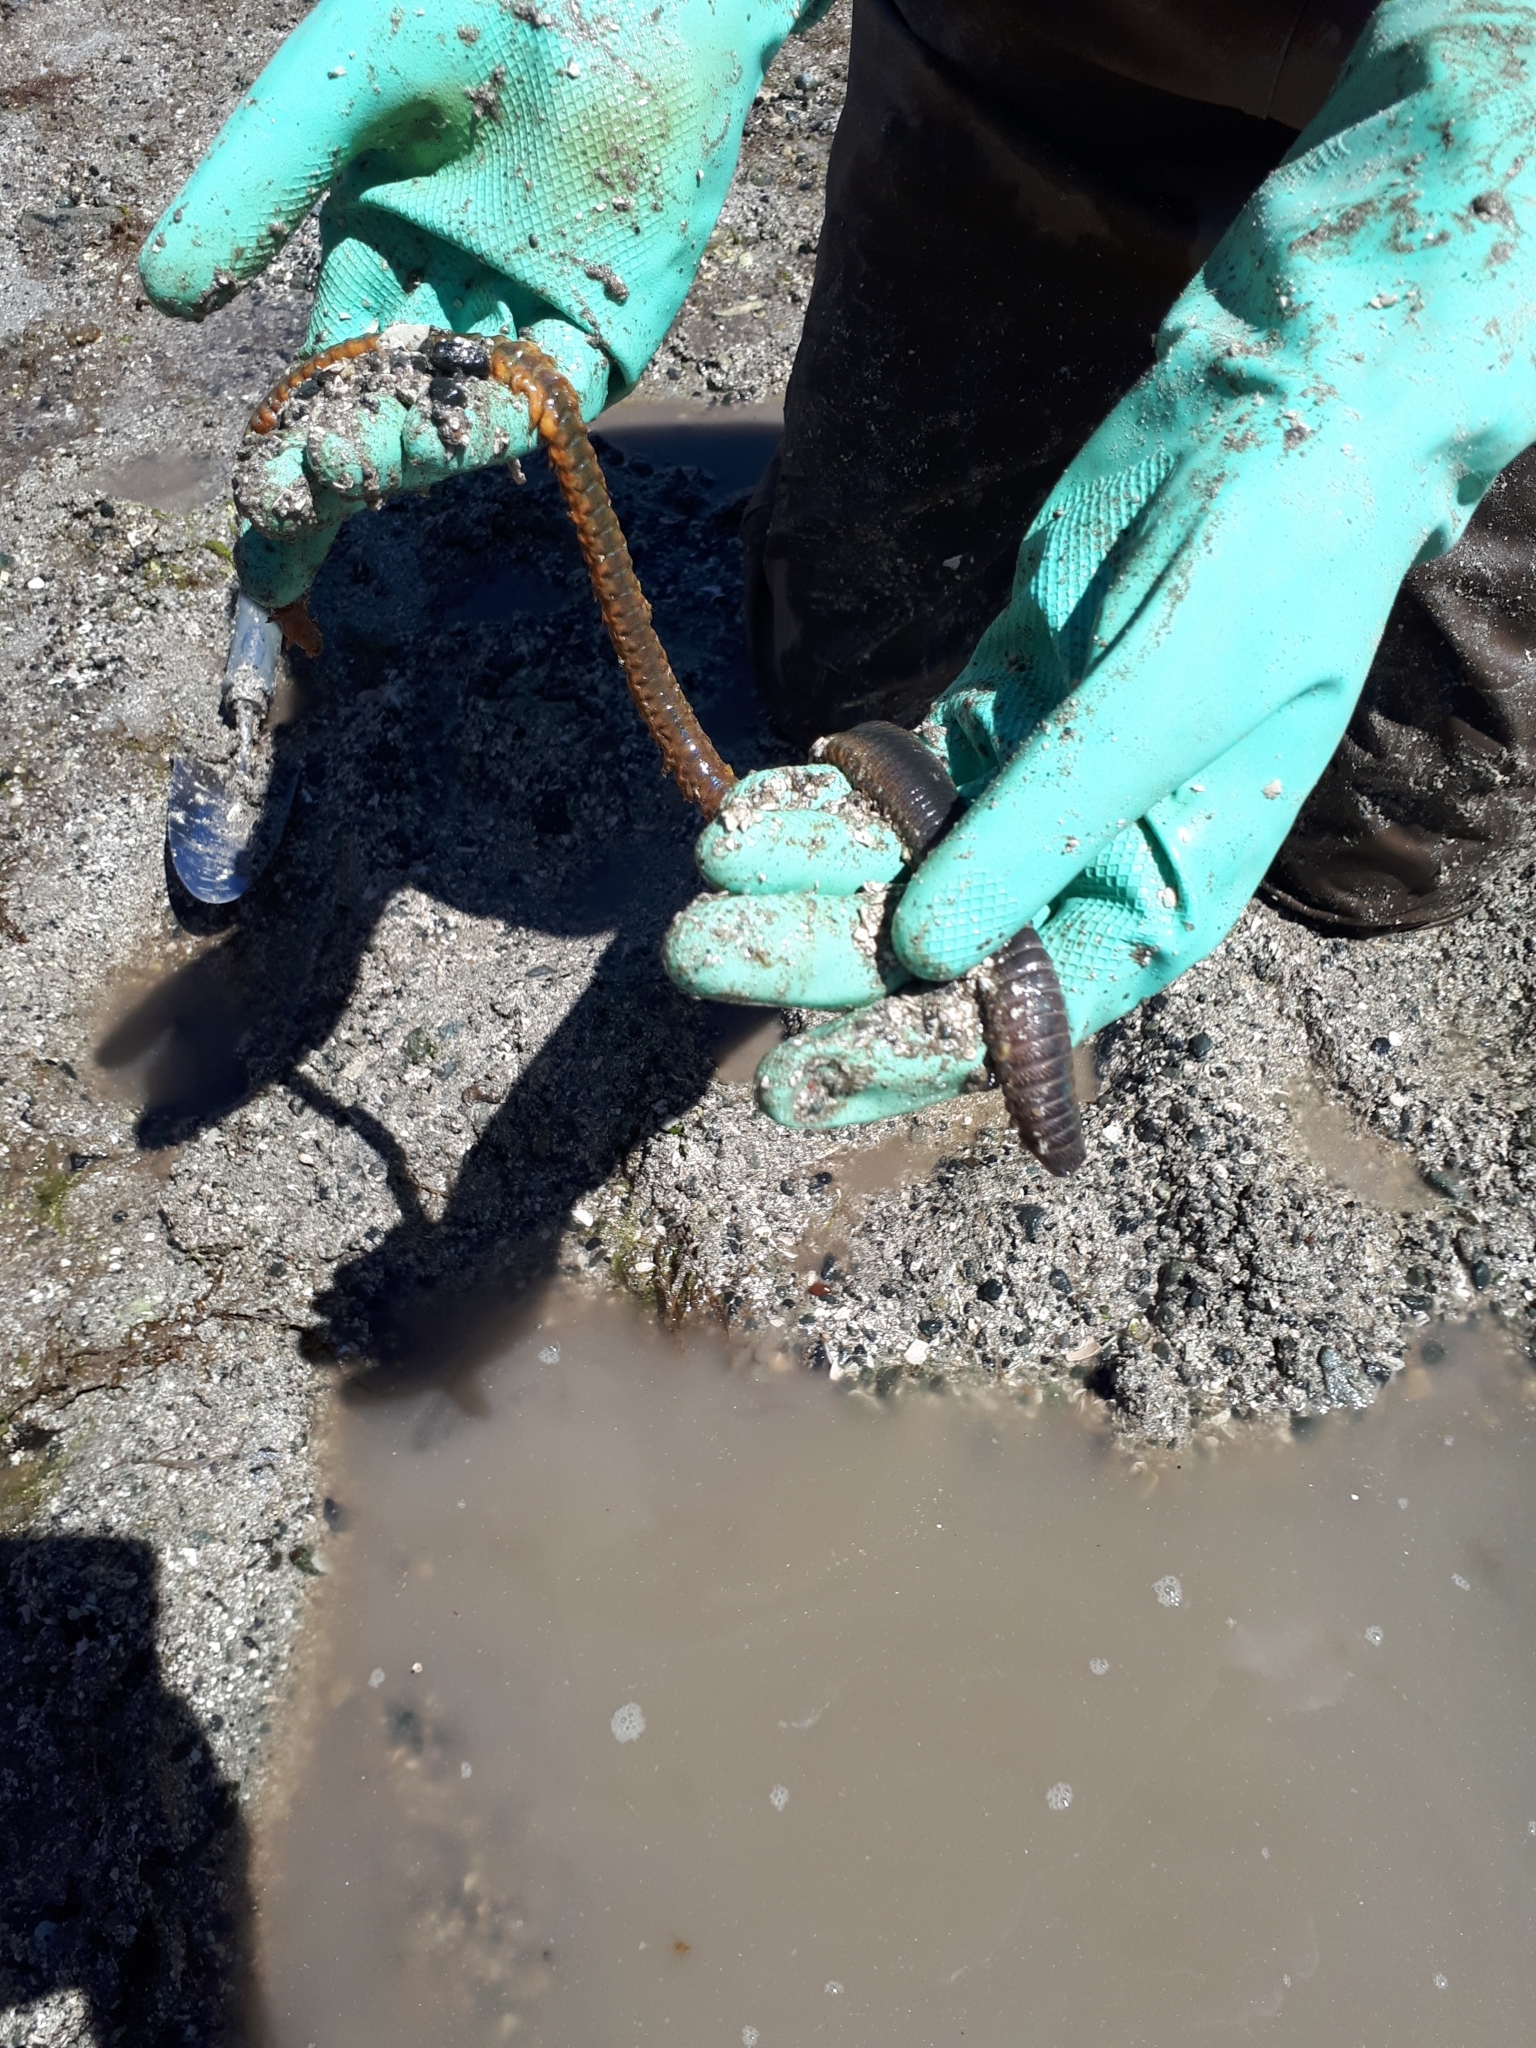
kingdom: Animalia
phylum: Annelida
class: Polychaeta
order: Phyllodocida
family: Nereididae
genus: Nereis
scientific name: Nereis vexillosa
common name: Mussel worm
